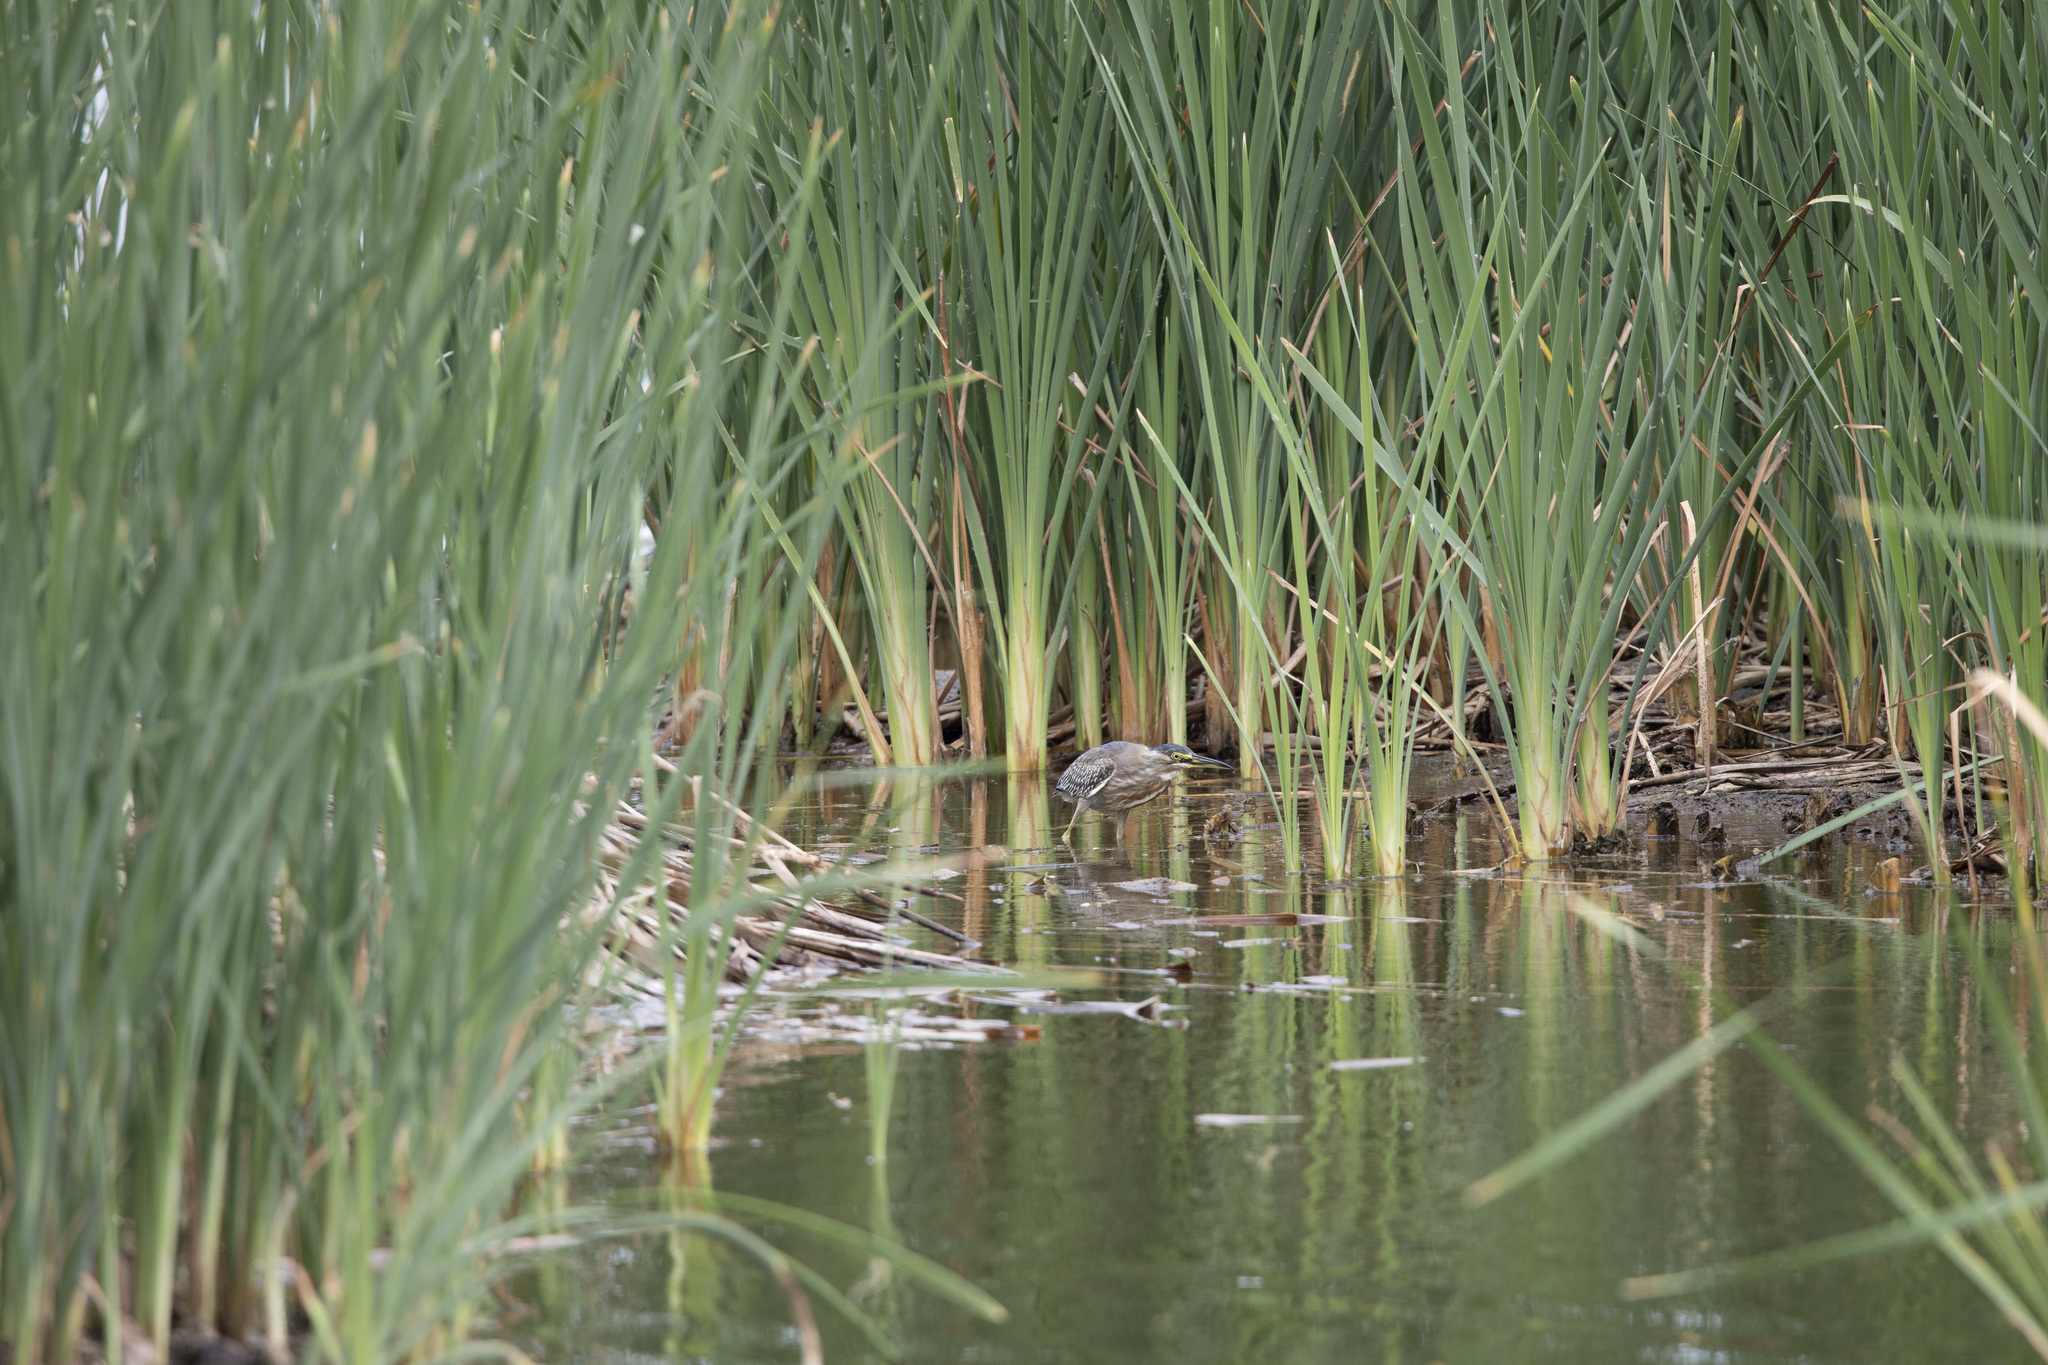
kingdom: Animalia
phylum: Chordata
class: Aves
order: Pelecaniformes
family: Ardeidae
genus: Butorides
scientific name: Butorides striata
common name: Striated heron
